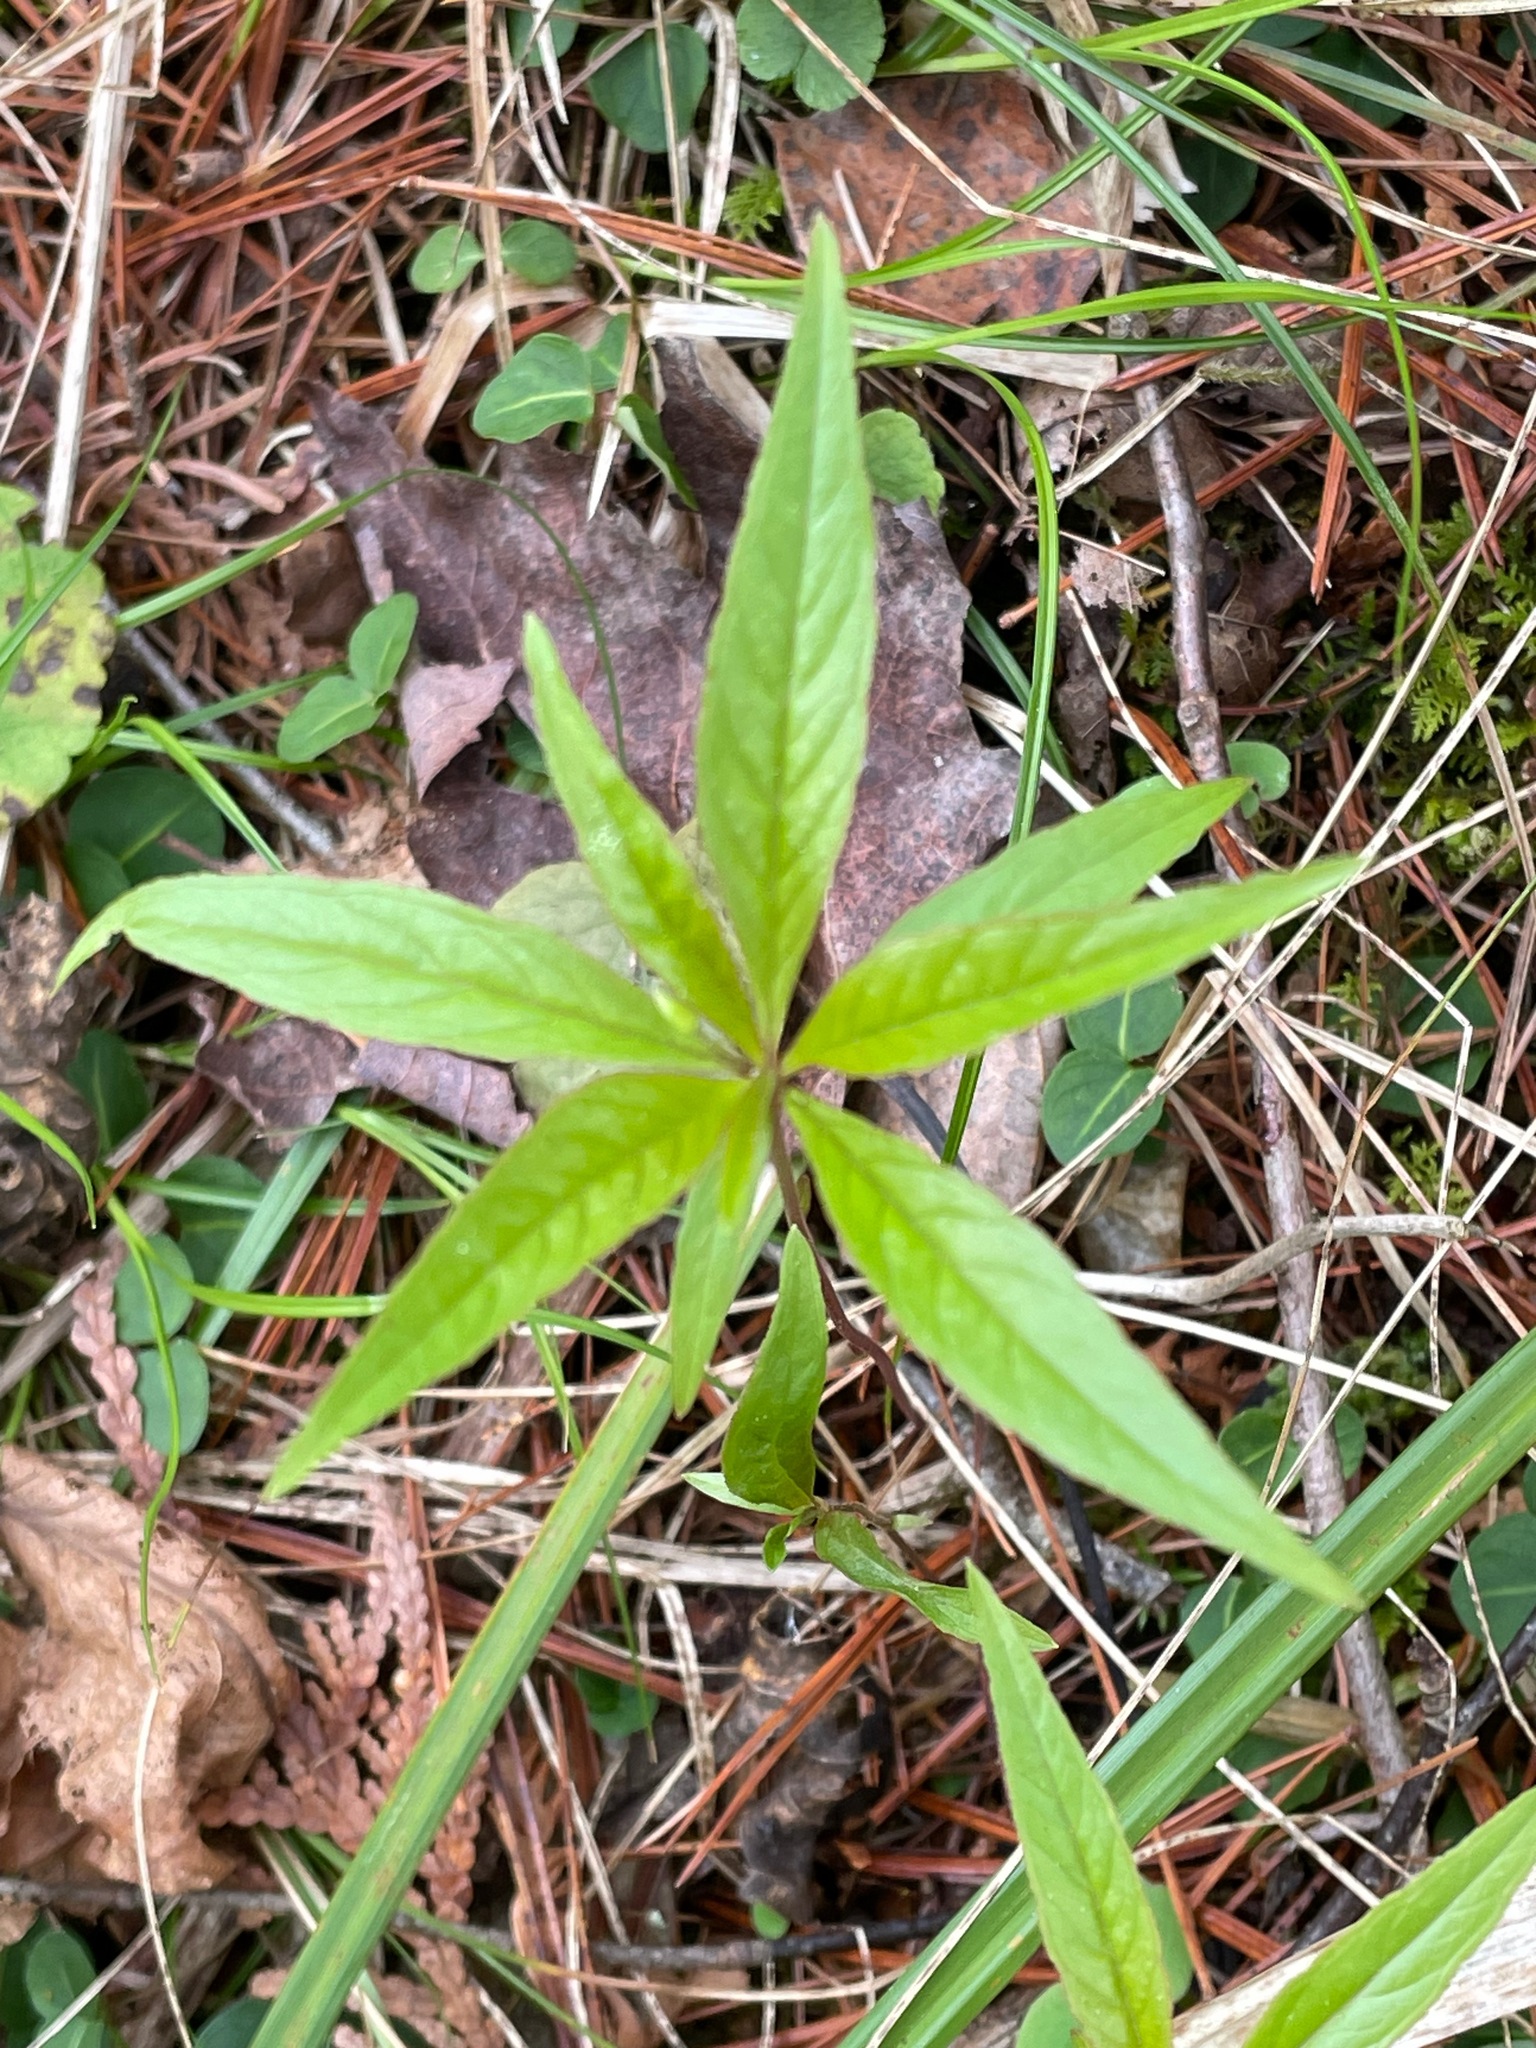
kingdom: Plantae
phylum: Tracheophyta
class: Magnoliopsida
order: Ericales
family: Primulaceae
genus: Lysimachia
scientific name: Lysimachia borealis
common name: American starflower
